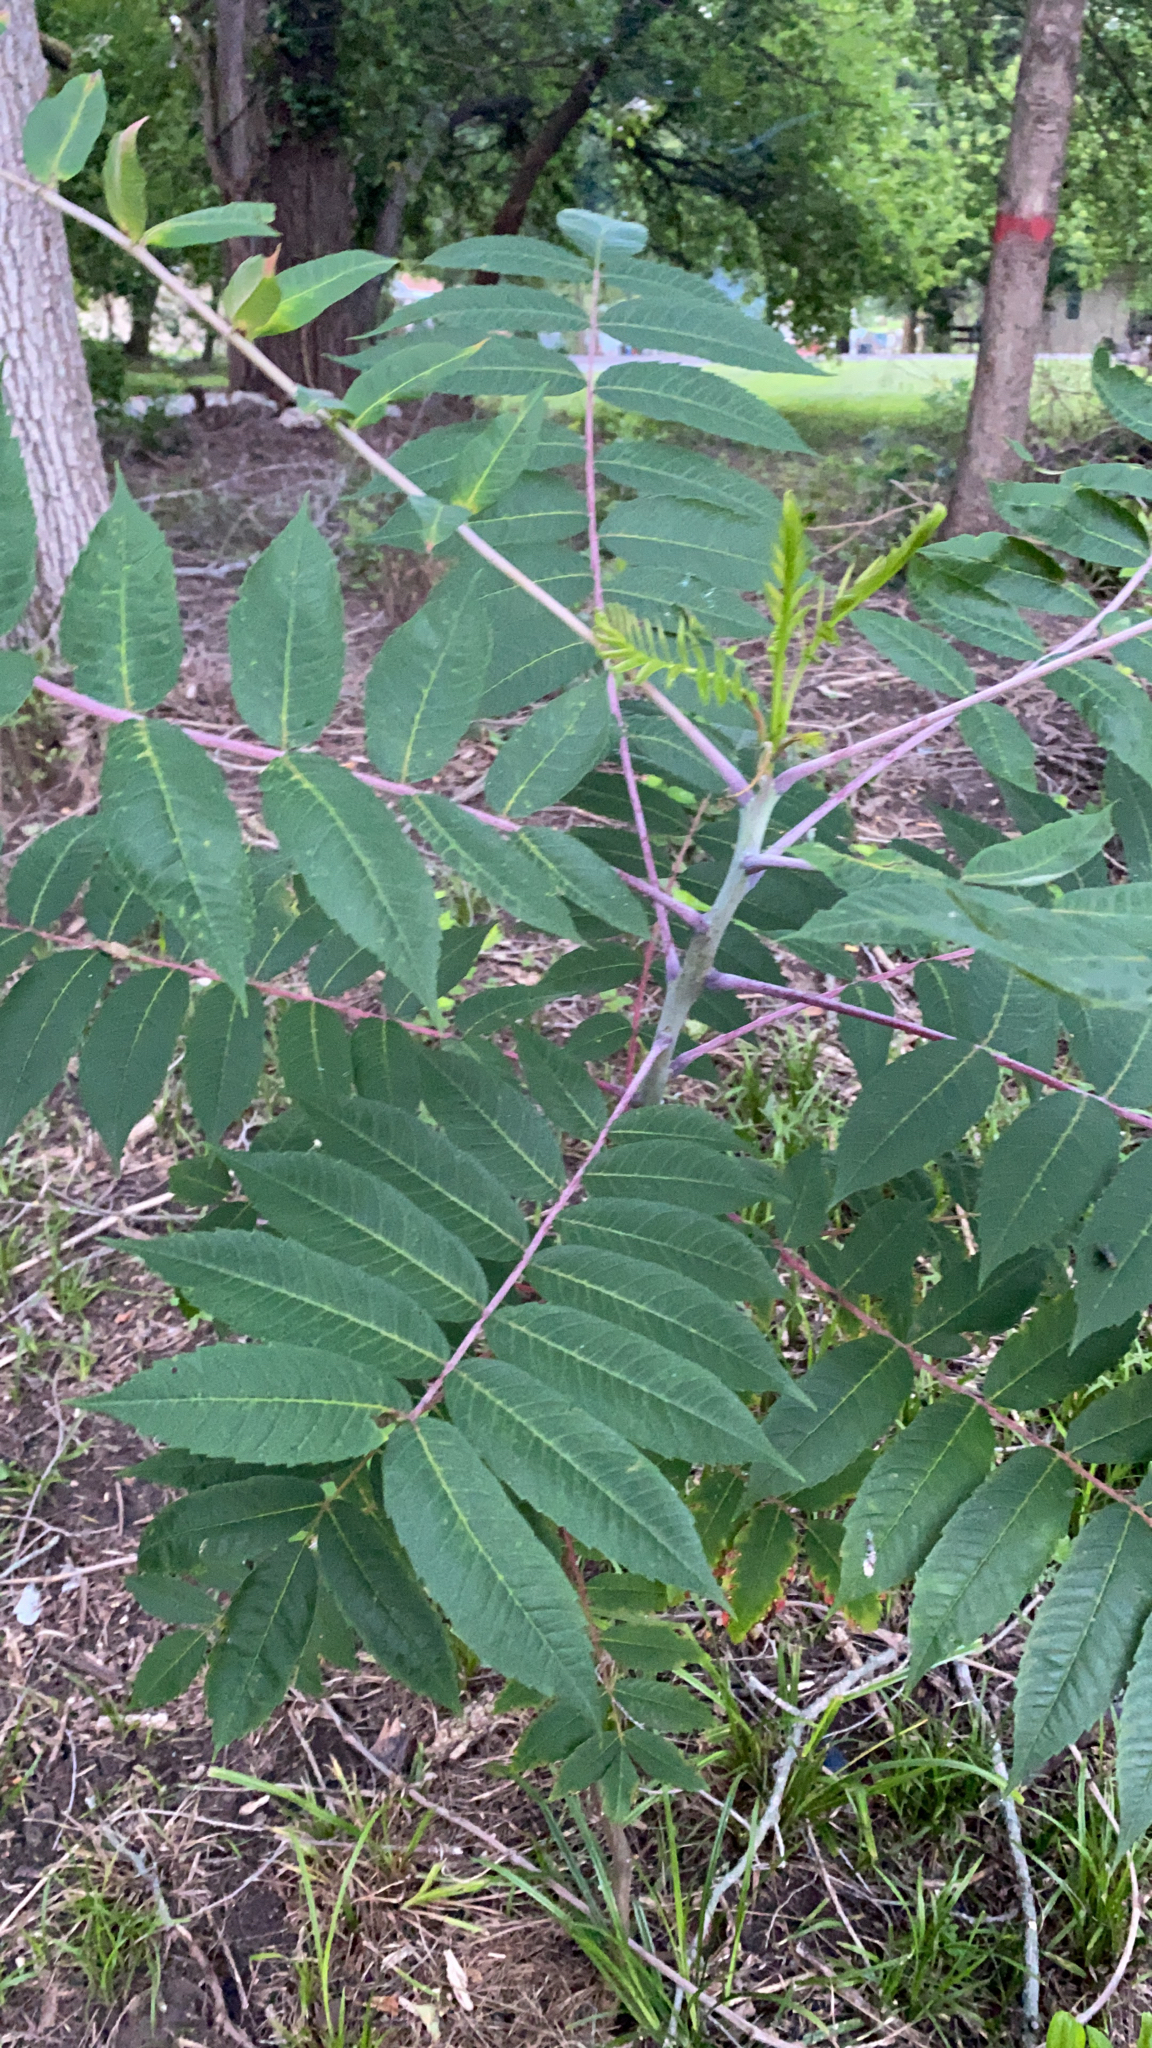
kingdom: Plantae
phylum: Tracheophyta
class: Magnoliopsida
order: Sapindales
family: Anacardiaceae
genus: Rhus
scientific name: Rhus glabra
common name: Scarlet sumac
